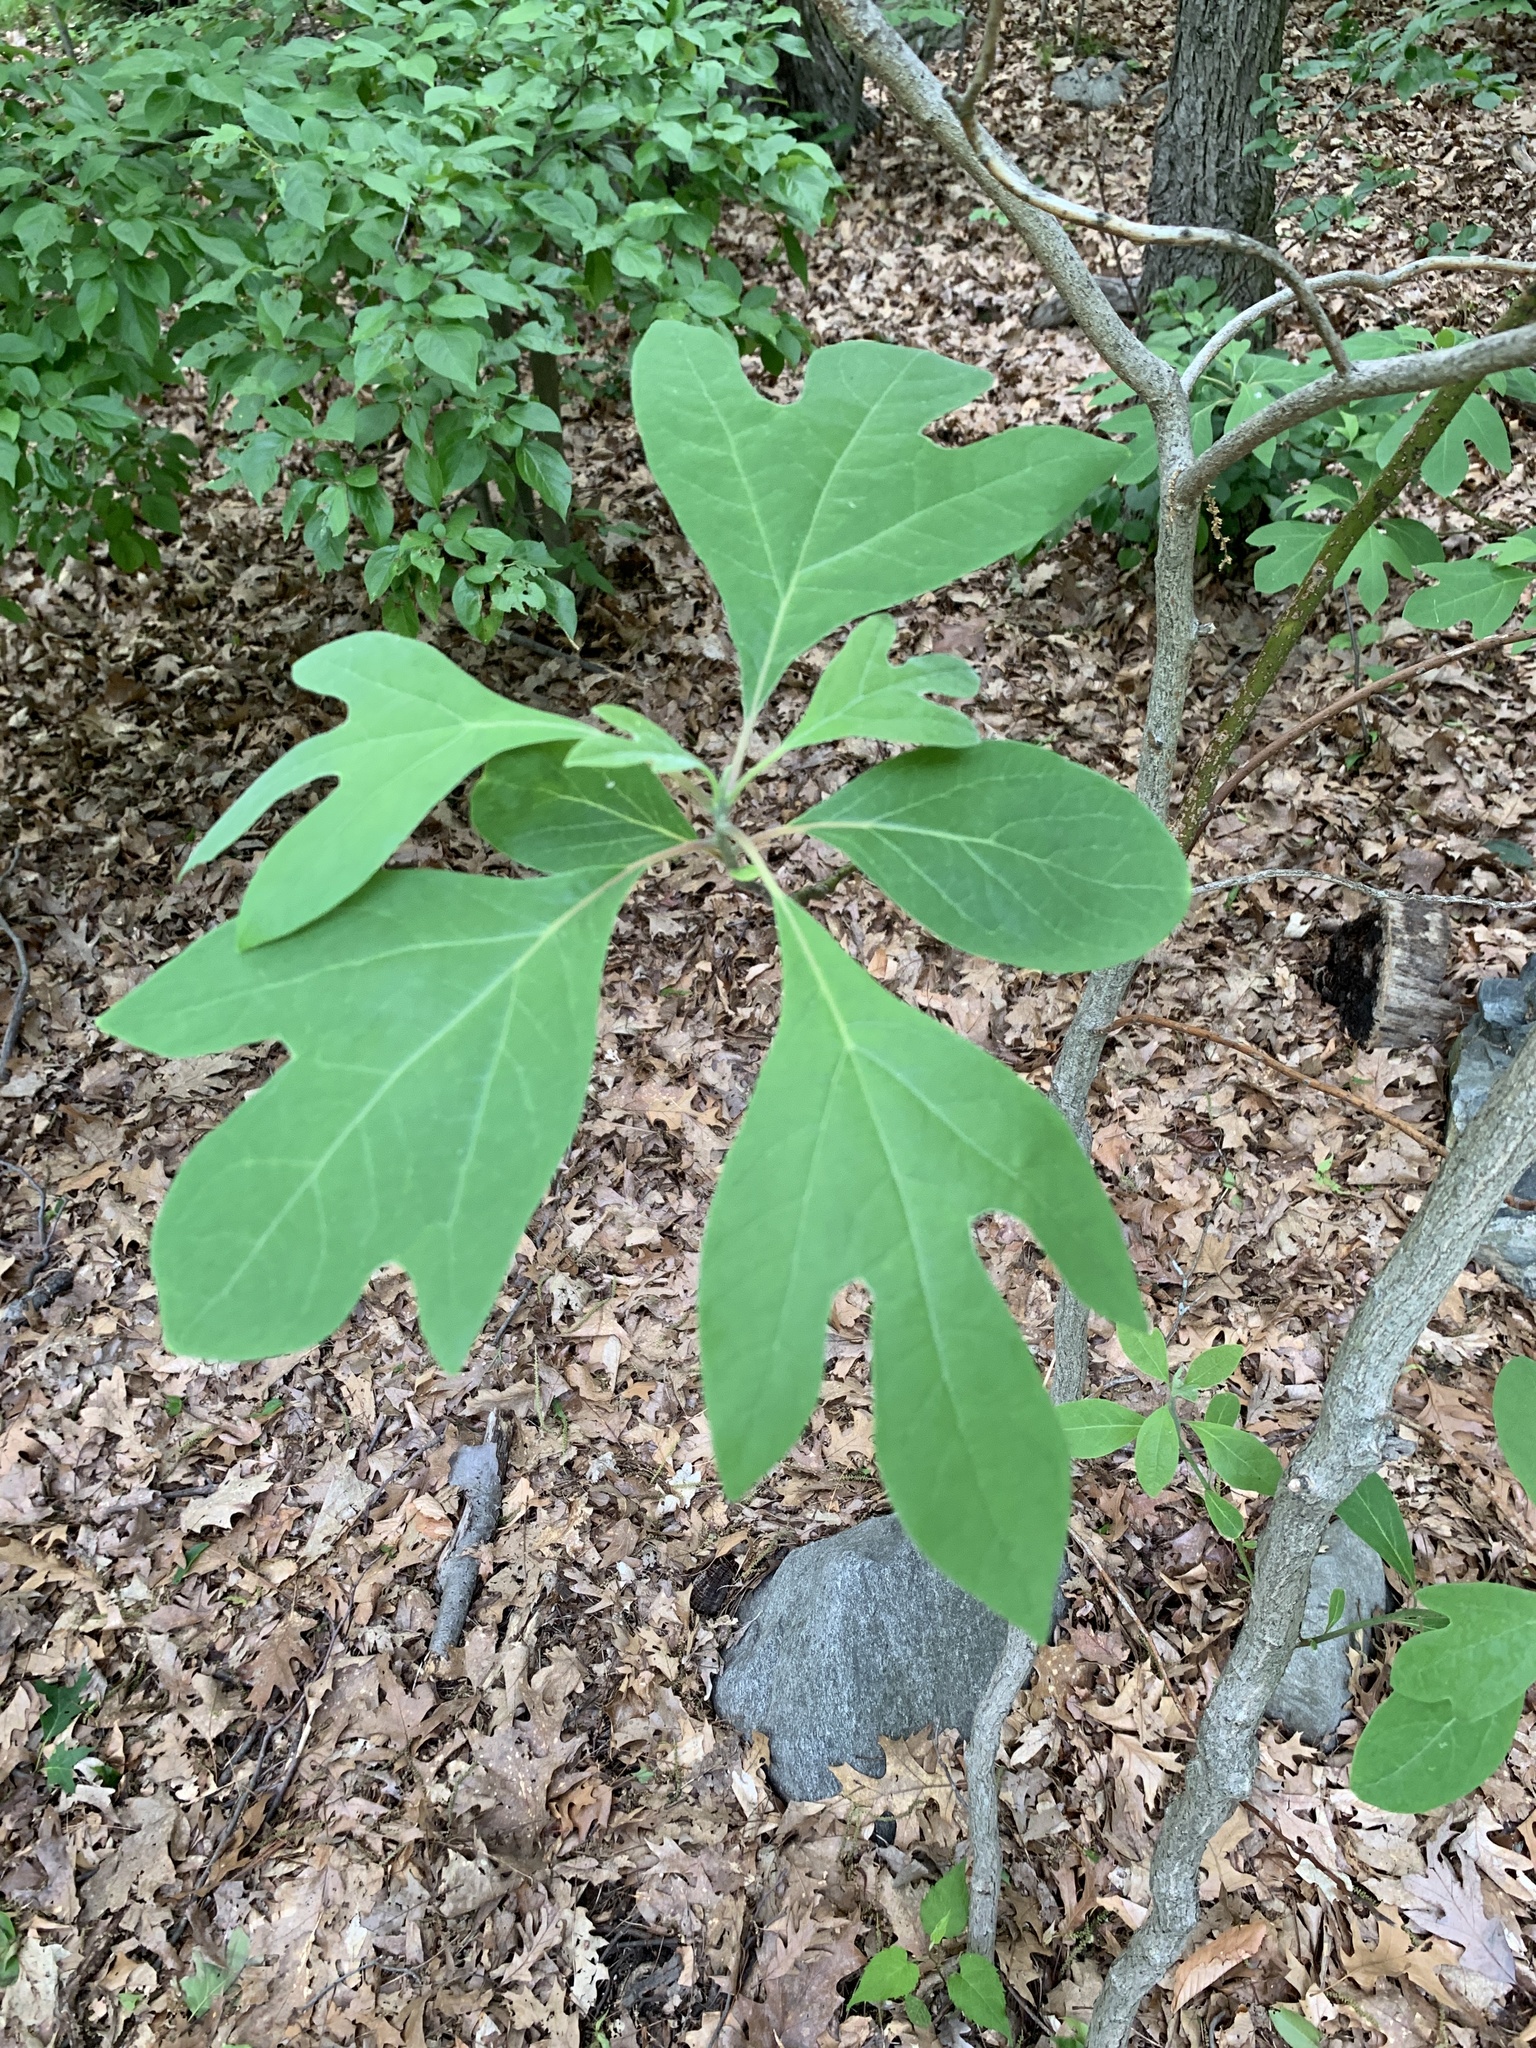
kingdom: Plantae
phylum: Tracheophyta
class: Magnoliopsida
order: Laurales
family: Lauraceae
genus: Sassafras
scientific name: Sassafras albidum
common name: Sassafras
